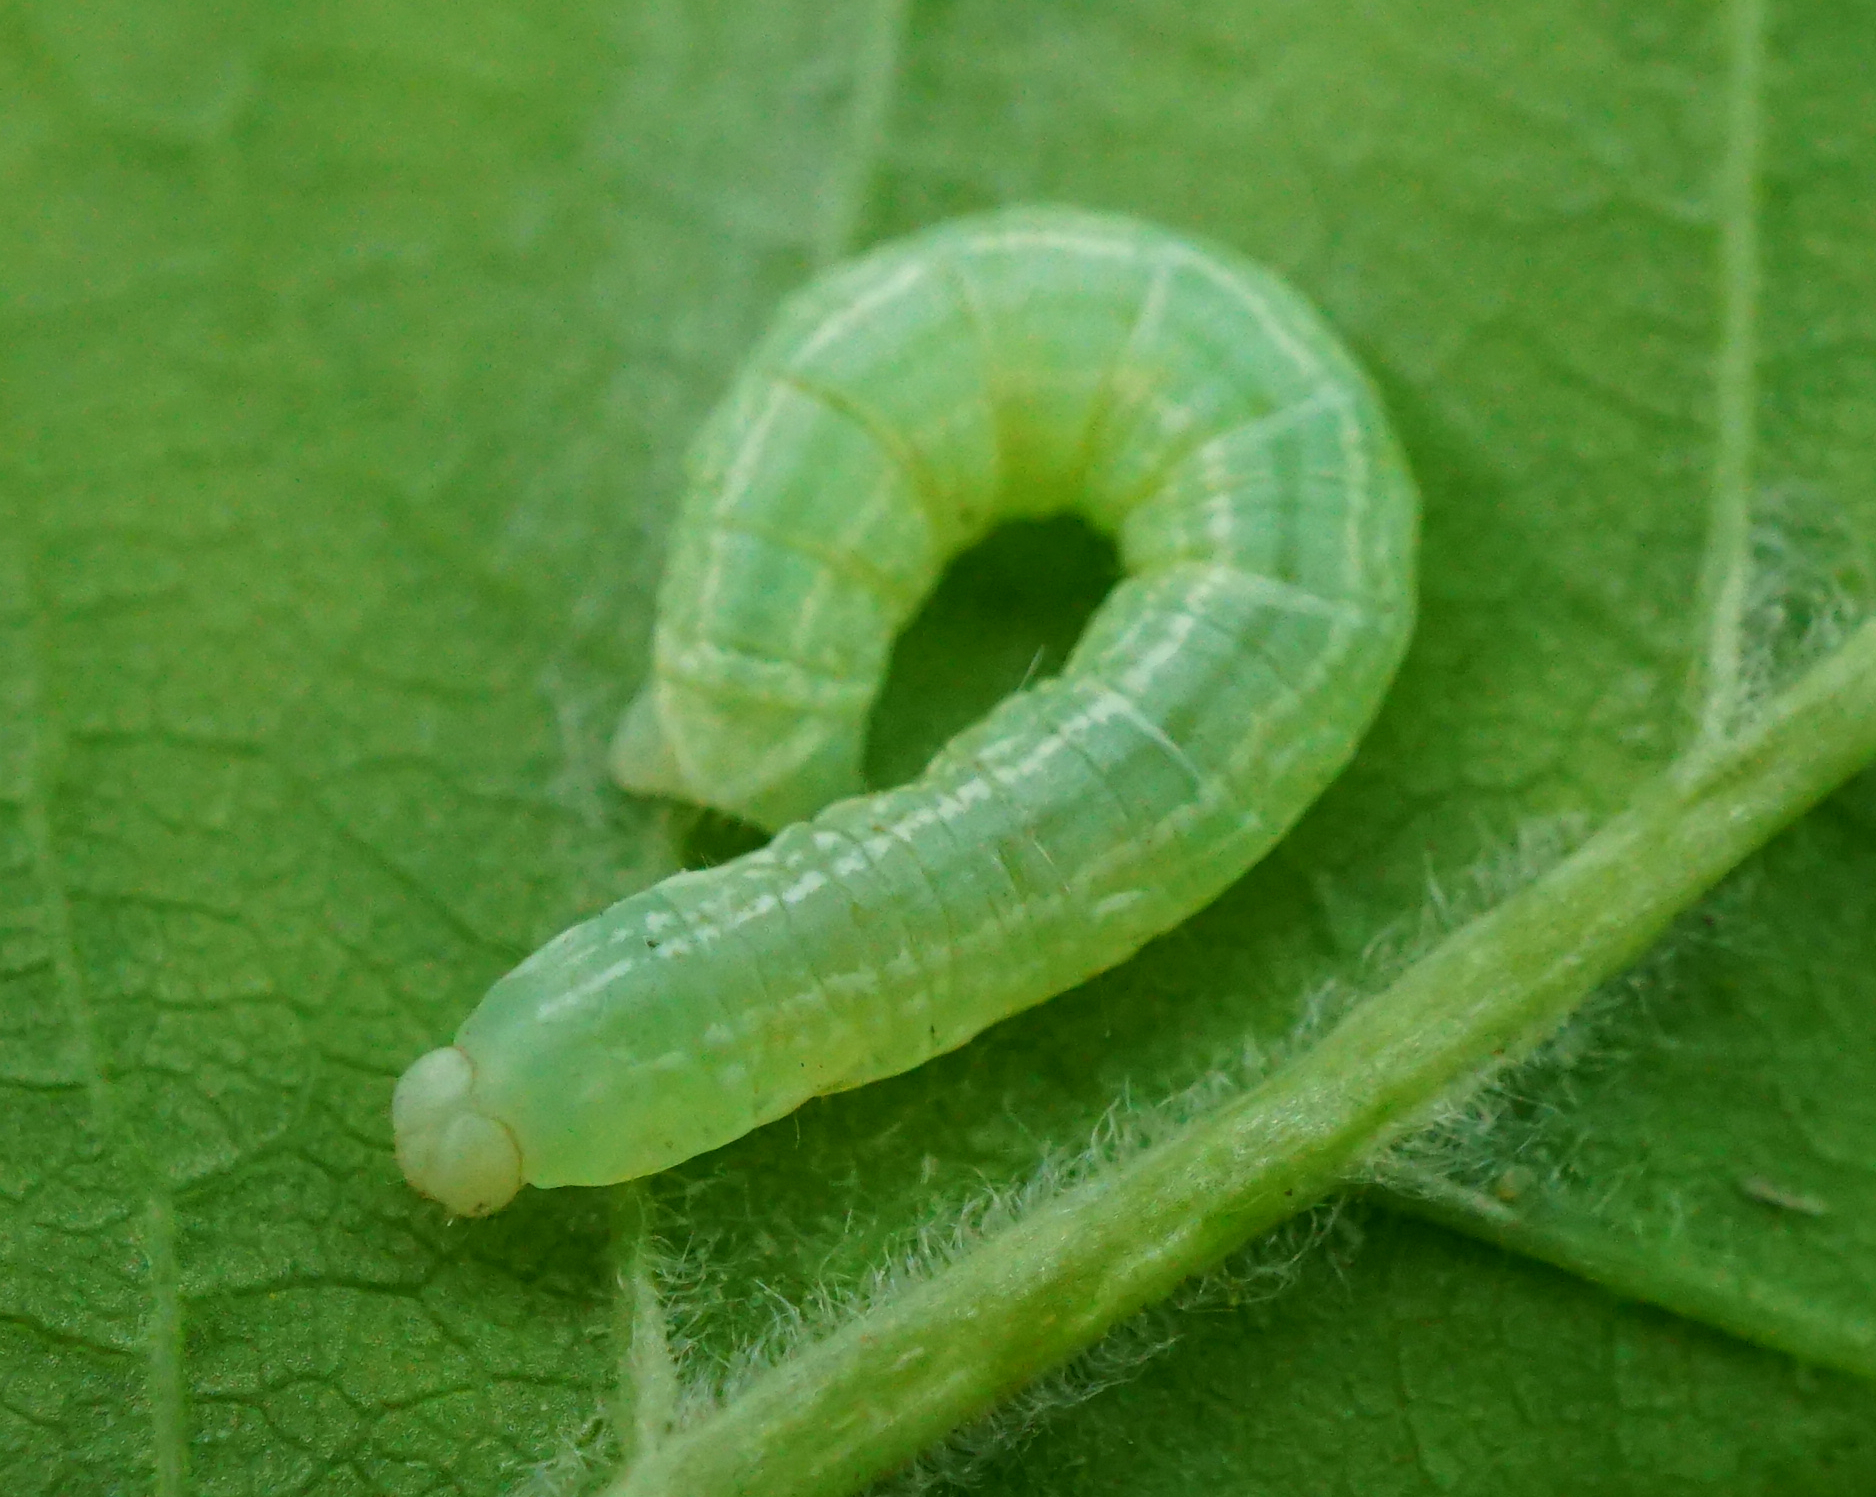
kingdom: Animalia
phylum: Arthropoda
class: Insecta
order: Lepidoptera
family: Geometridae
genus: Operophtera
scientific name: Operophtera brumata
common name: Winter moth
